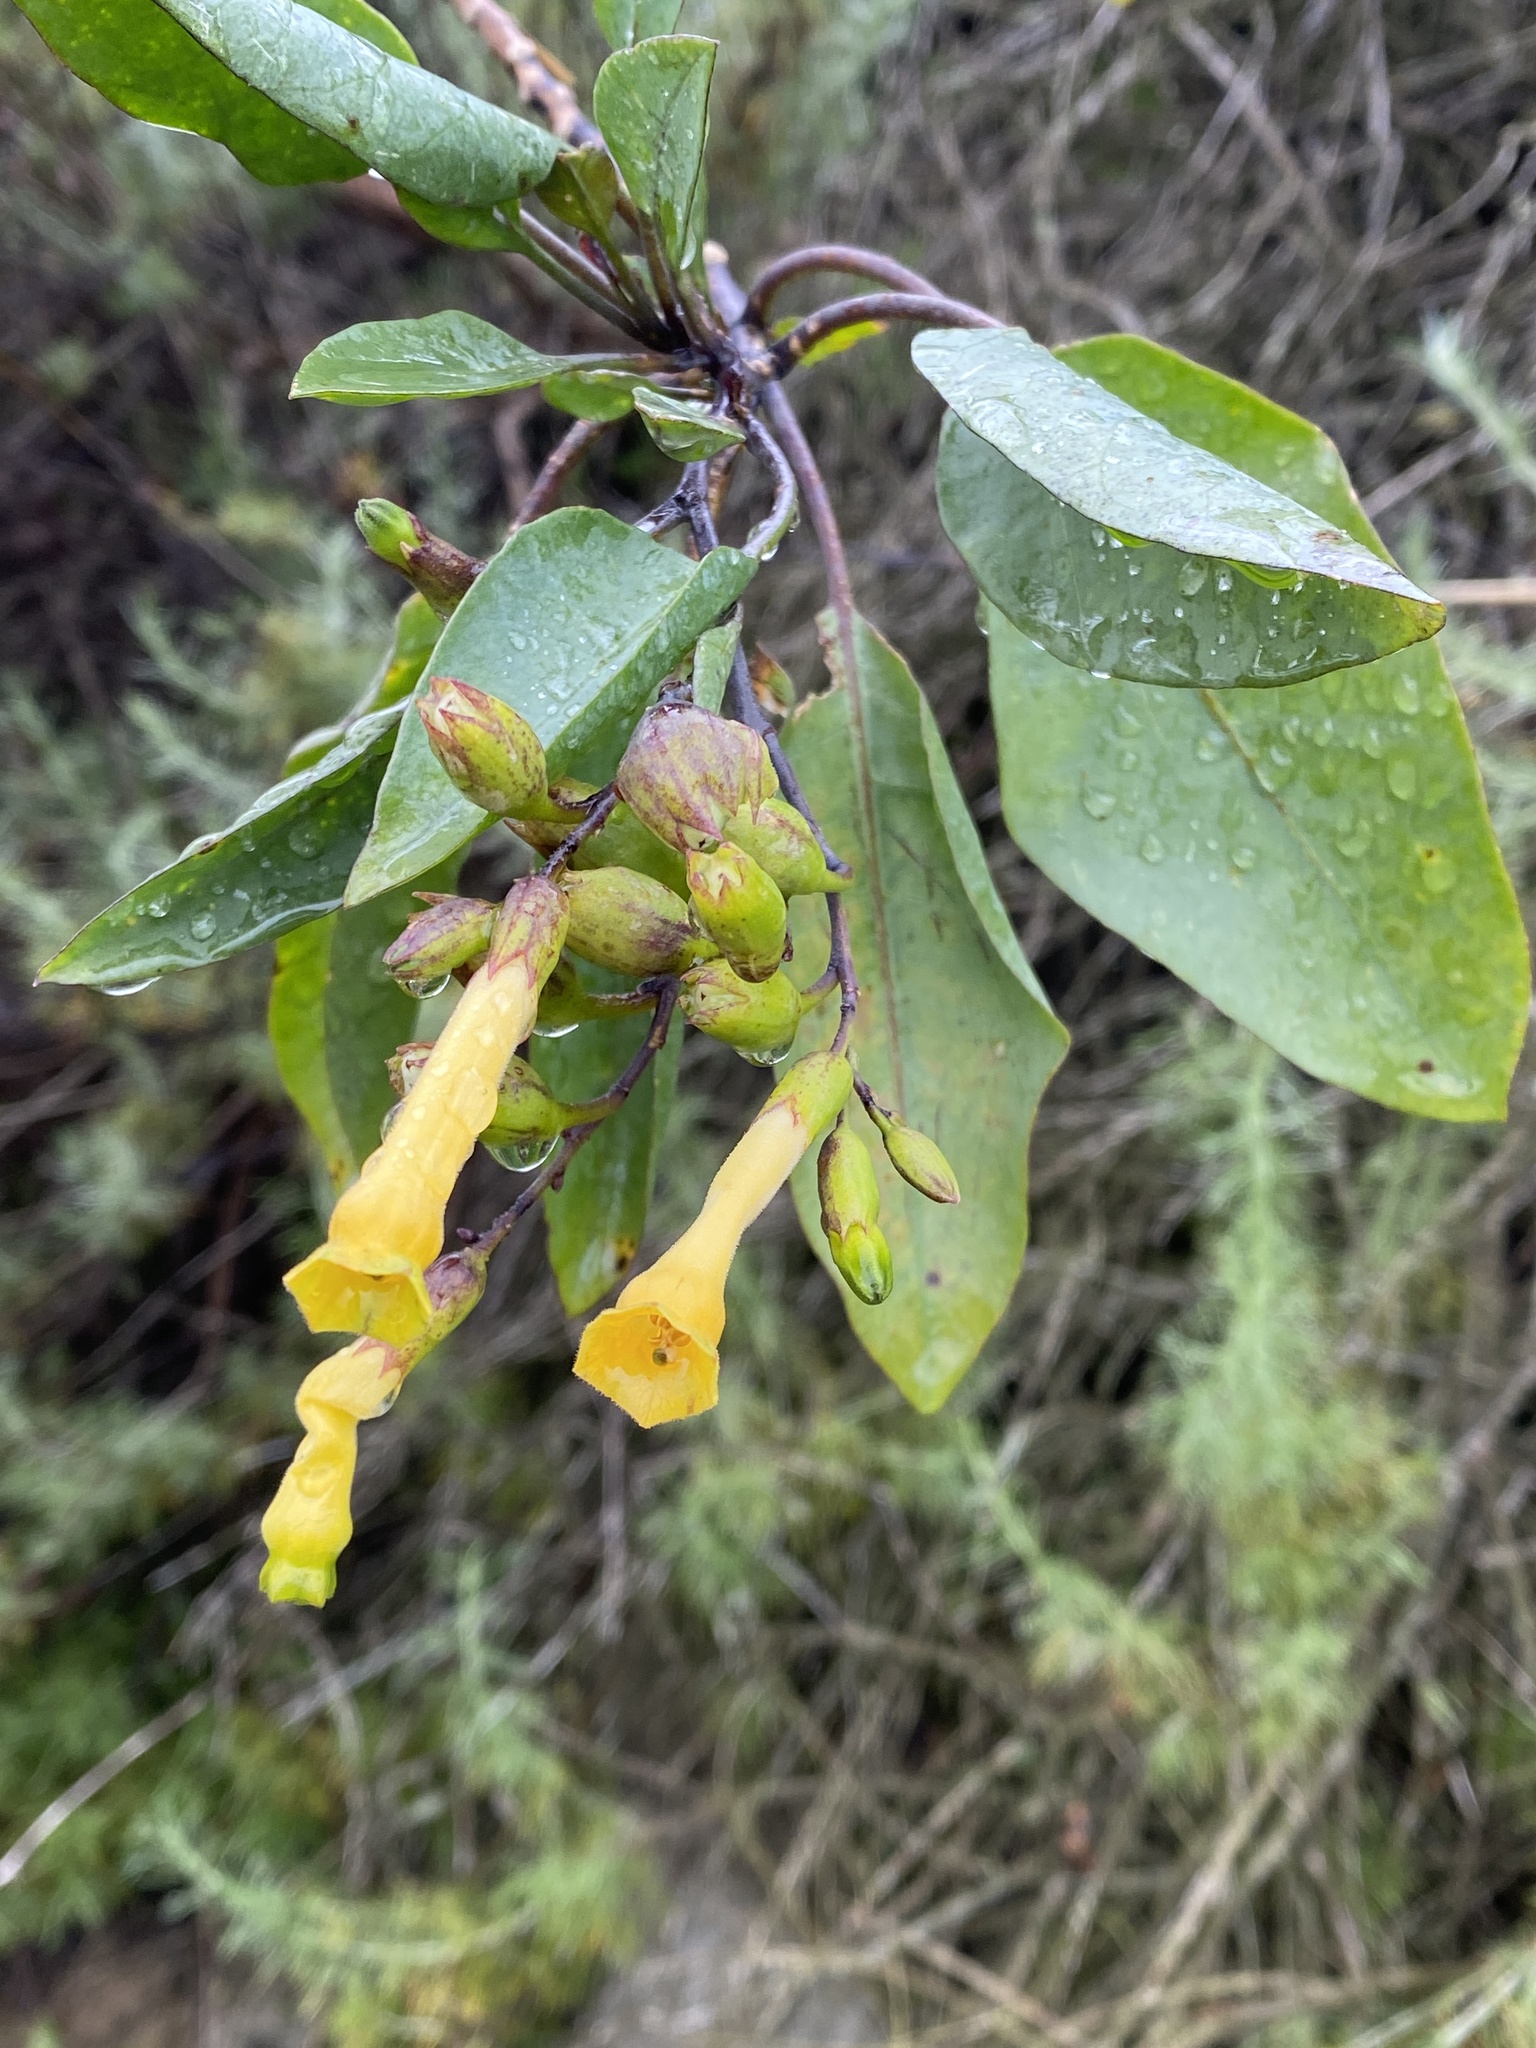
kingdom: Plantae
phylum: Tracheophyta
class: Magnoliopsida
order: Solanales
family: Solanaceae
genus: Nicotiana
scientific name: Nicotiana glauca
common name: Tree tobacco
